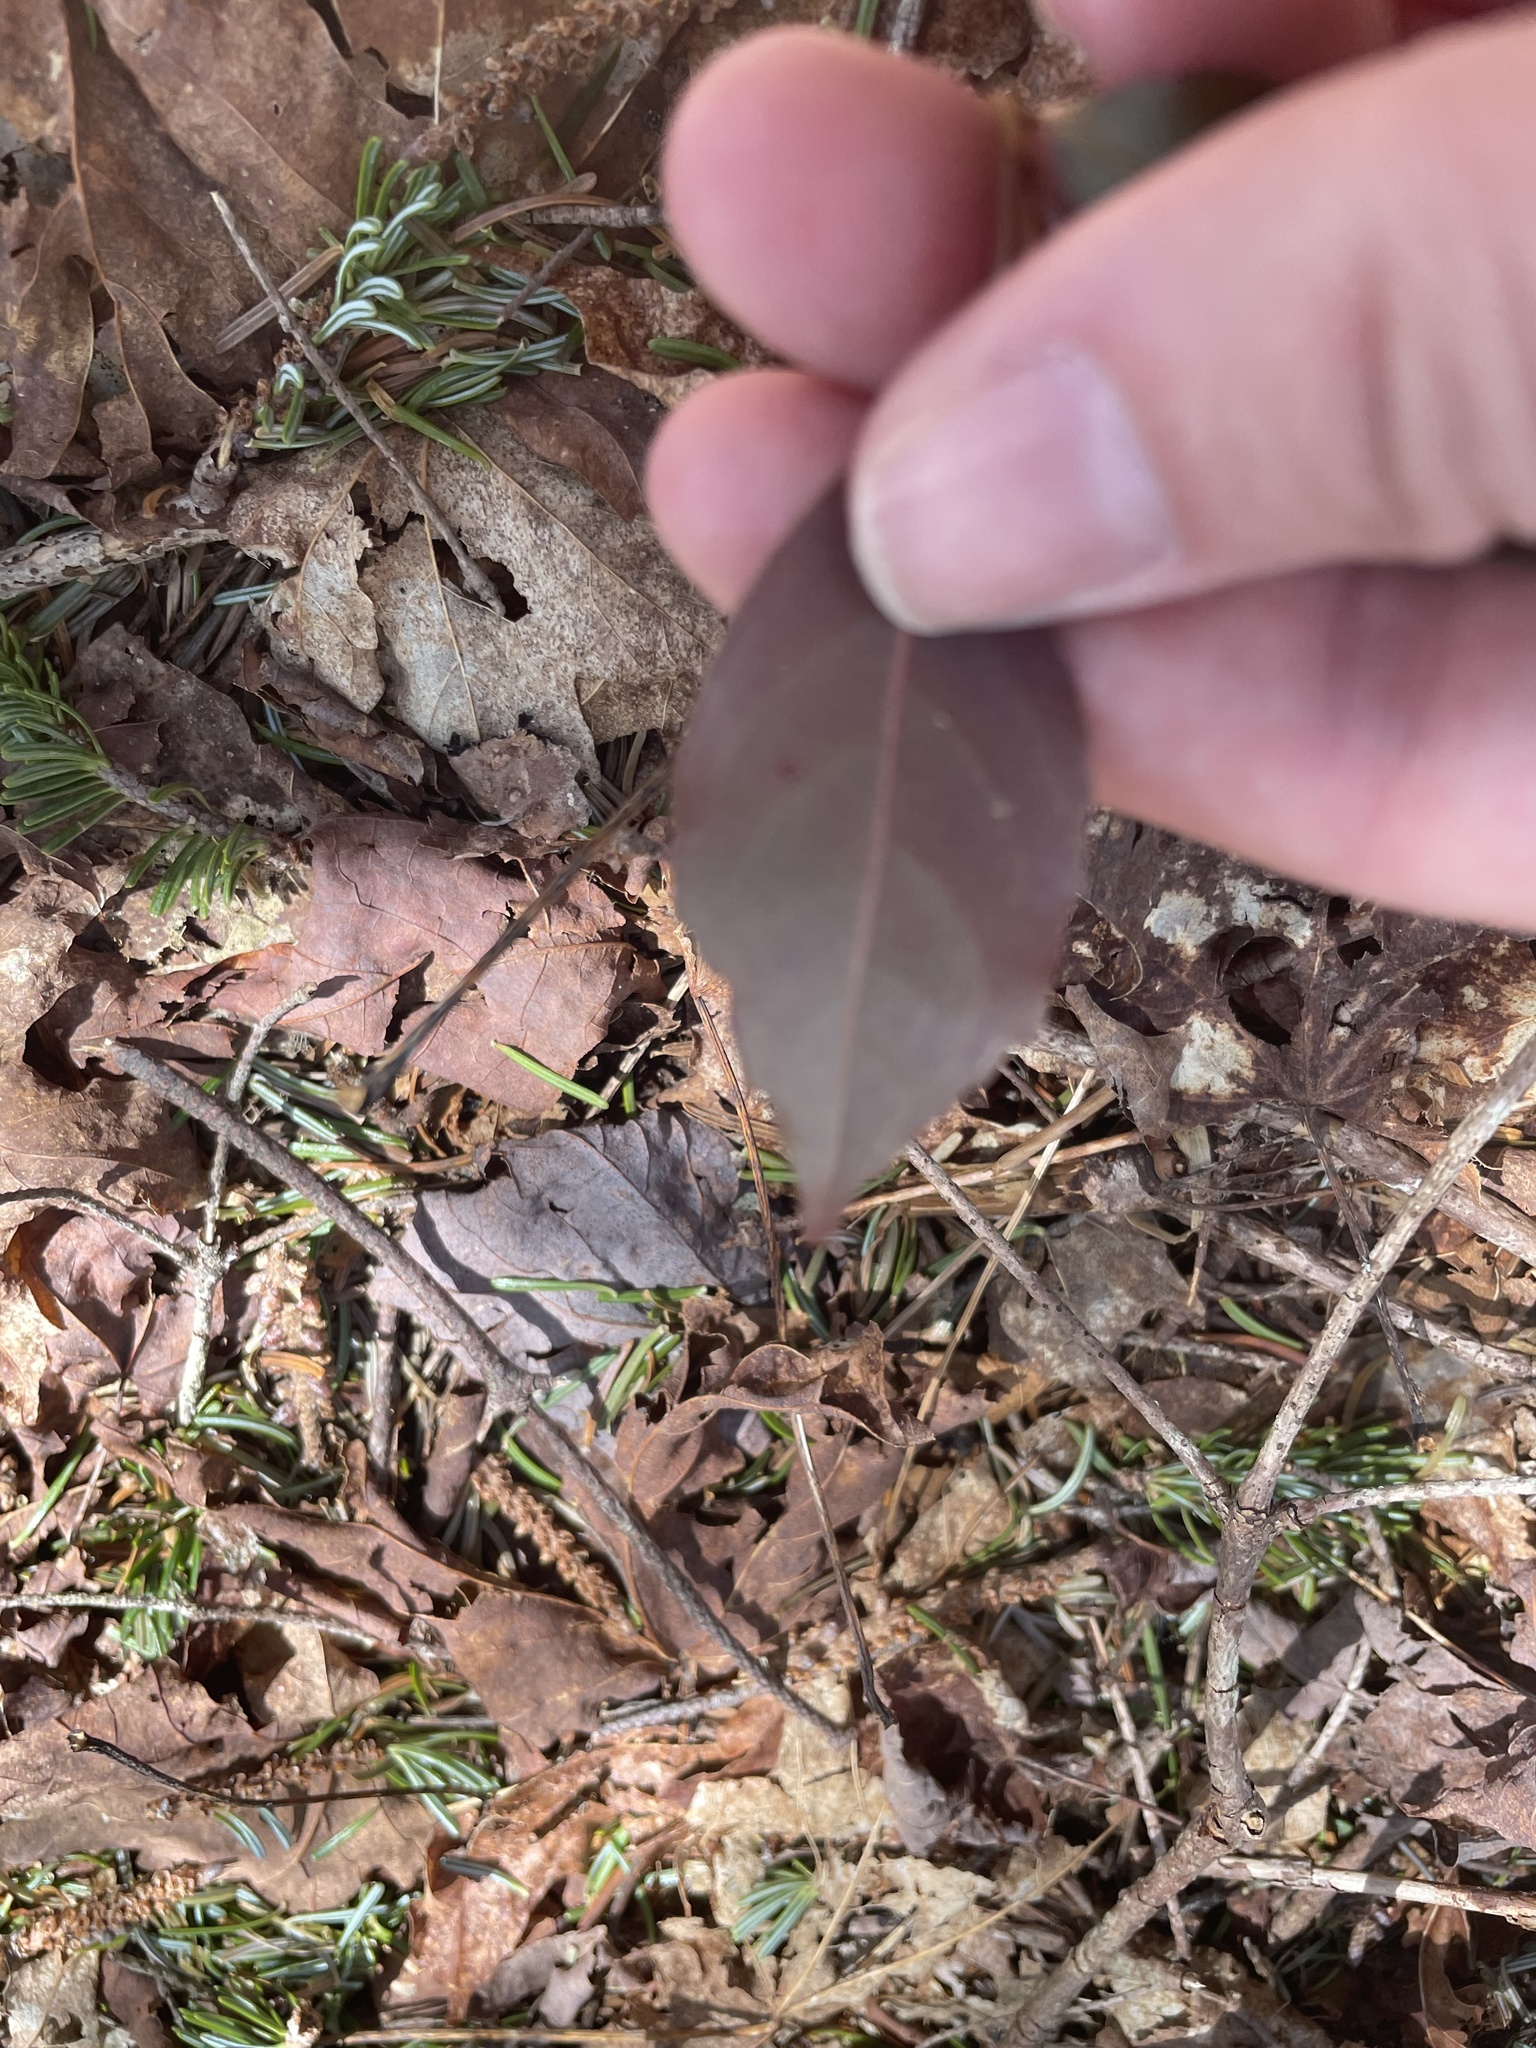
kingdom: Plantae
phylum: Tracheophyta
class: Magnoliopsida
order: Dipsacales
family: Viburnaceae
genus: Viburnum
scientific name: Viburnum cassinoides
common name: Swamp haw
